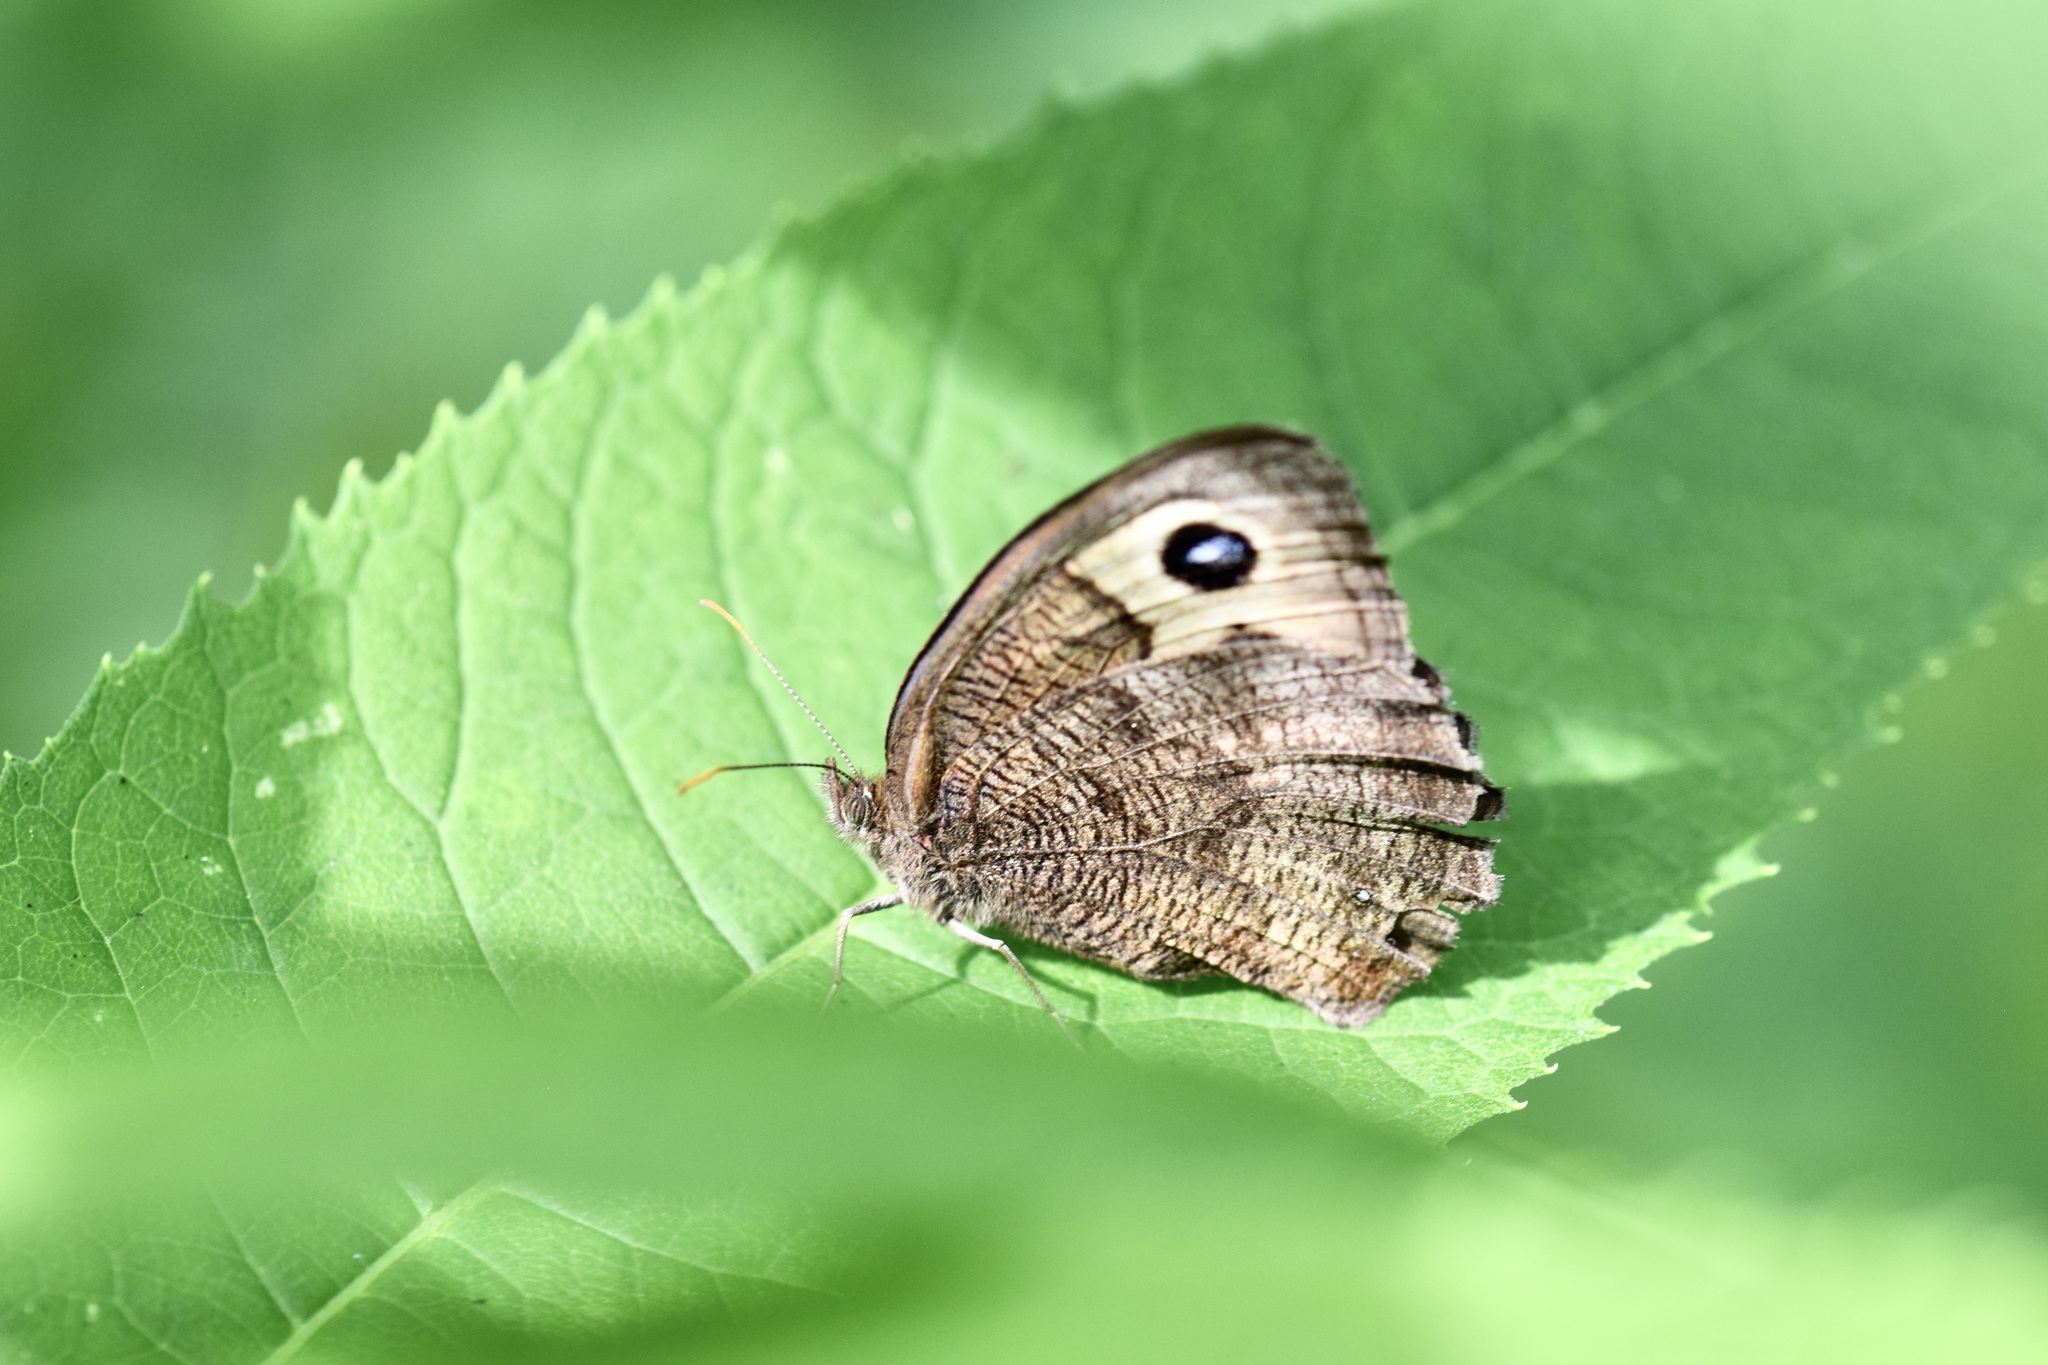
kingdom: Animalia
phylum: Arthropoda
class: Insecta
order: Lepidoptera
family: Nymphalidae
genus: Cercyonis
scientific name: Cercyonis pegala
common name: Common wood-nymph
